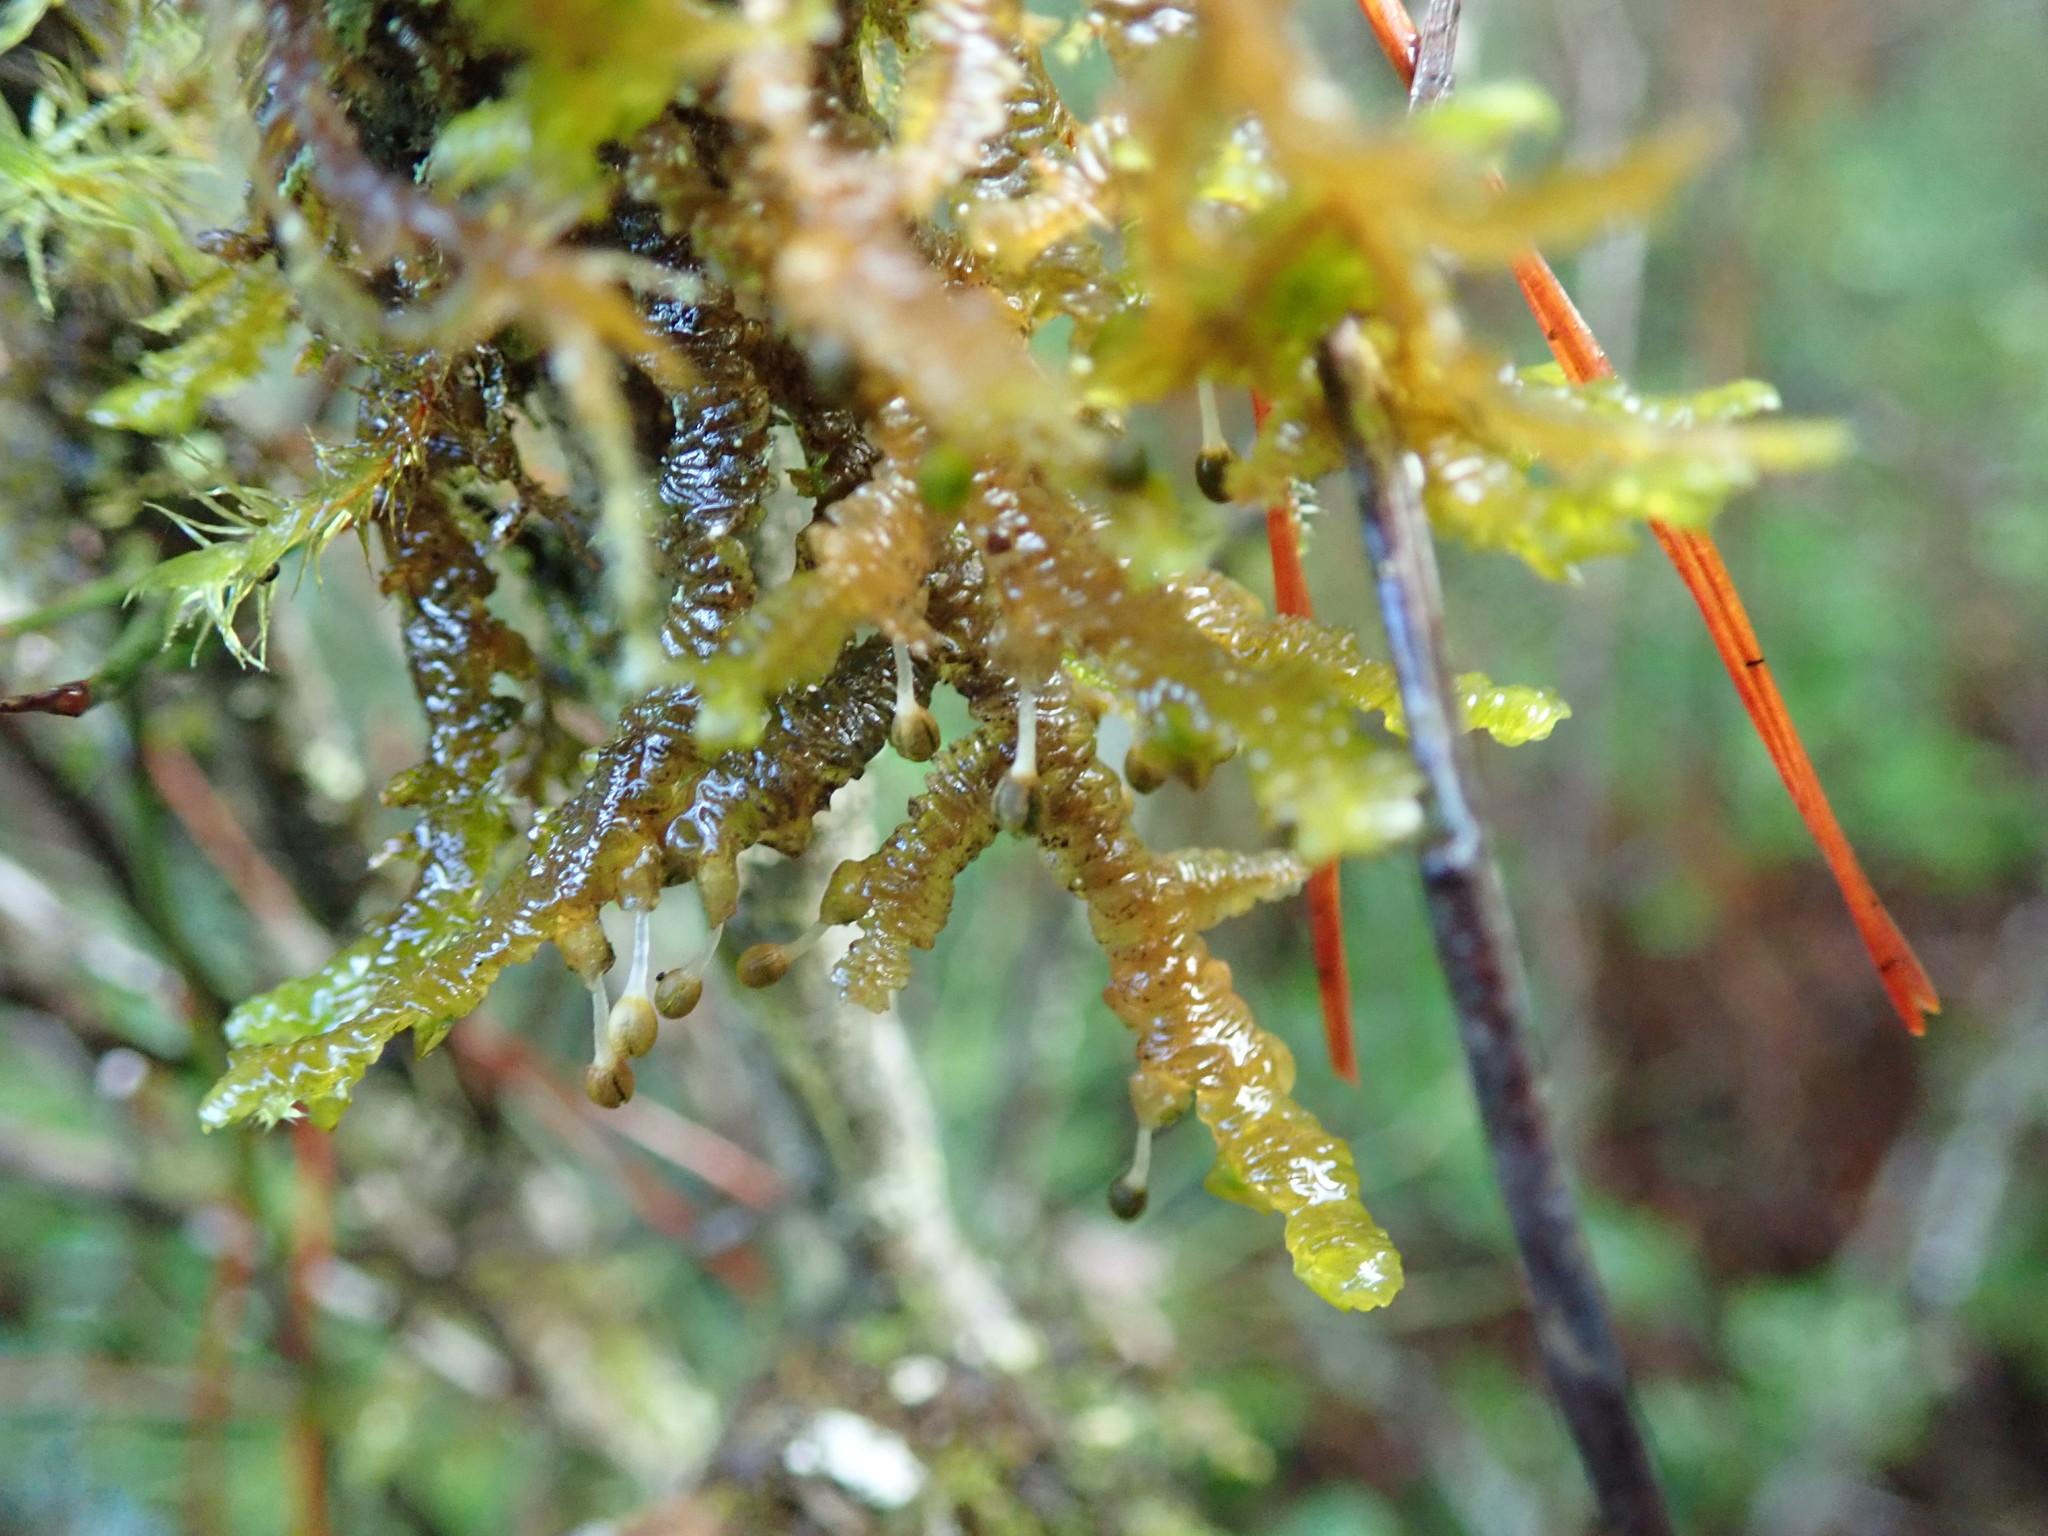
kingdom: Plantae
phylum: Marchantiophyta
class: Jungermanniopsida
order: Porellales
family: Porellaceae
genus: Porella
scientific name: Porella navicularis
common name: Tree ruffle liverwort
